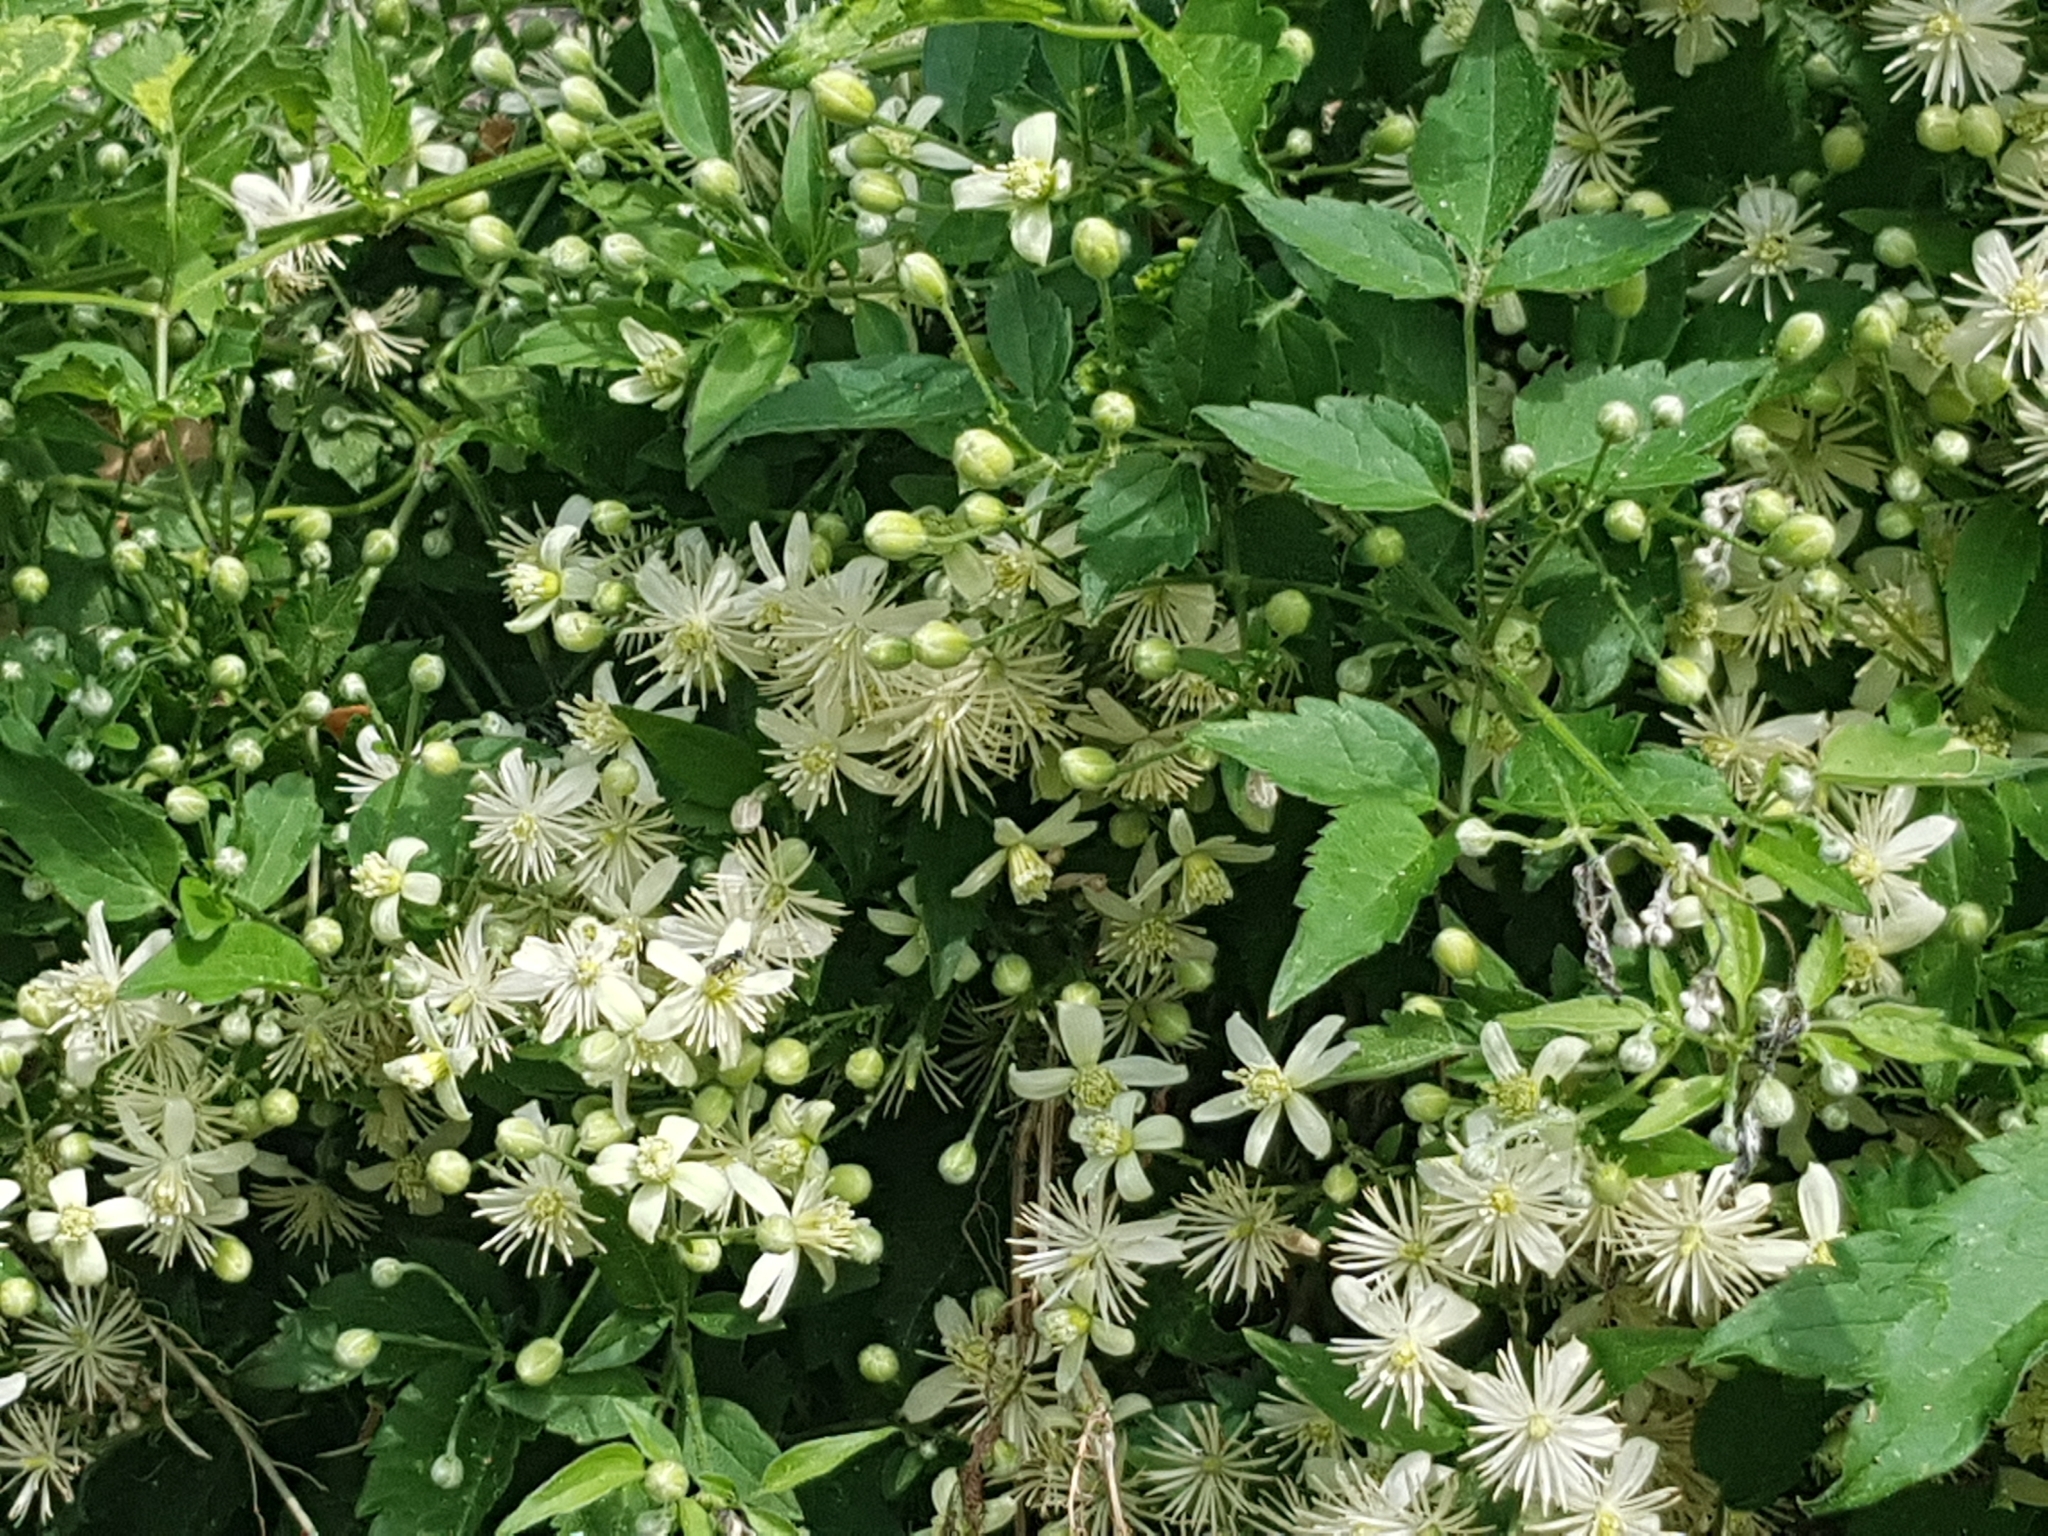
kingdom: Plantae
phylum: Tracheophyta
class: Magnoliopsida
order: Ranunculales
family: Ranunculaceae
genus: Clematis
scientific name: Clematis vitalba
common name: Evergreen clematis
